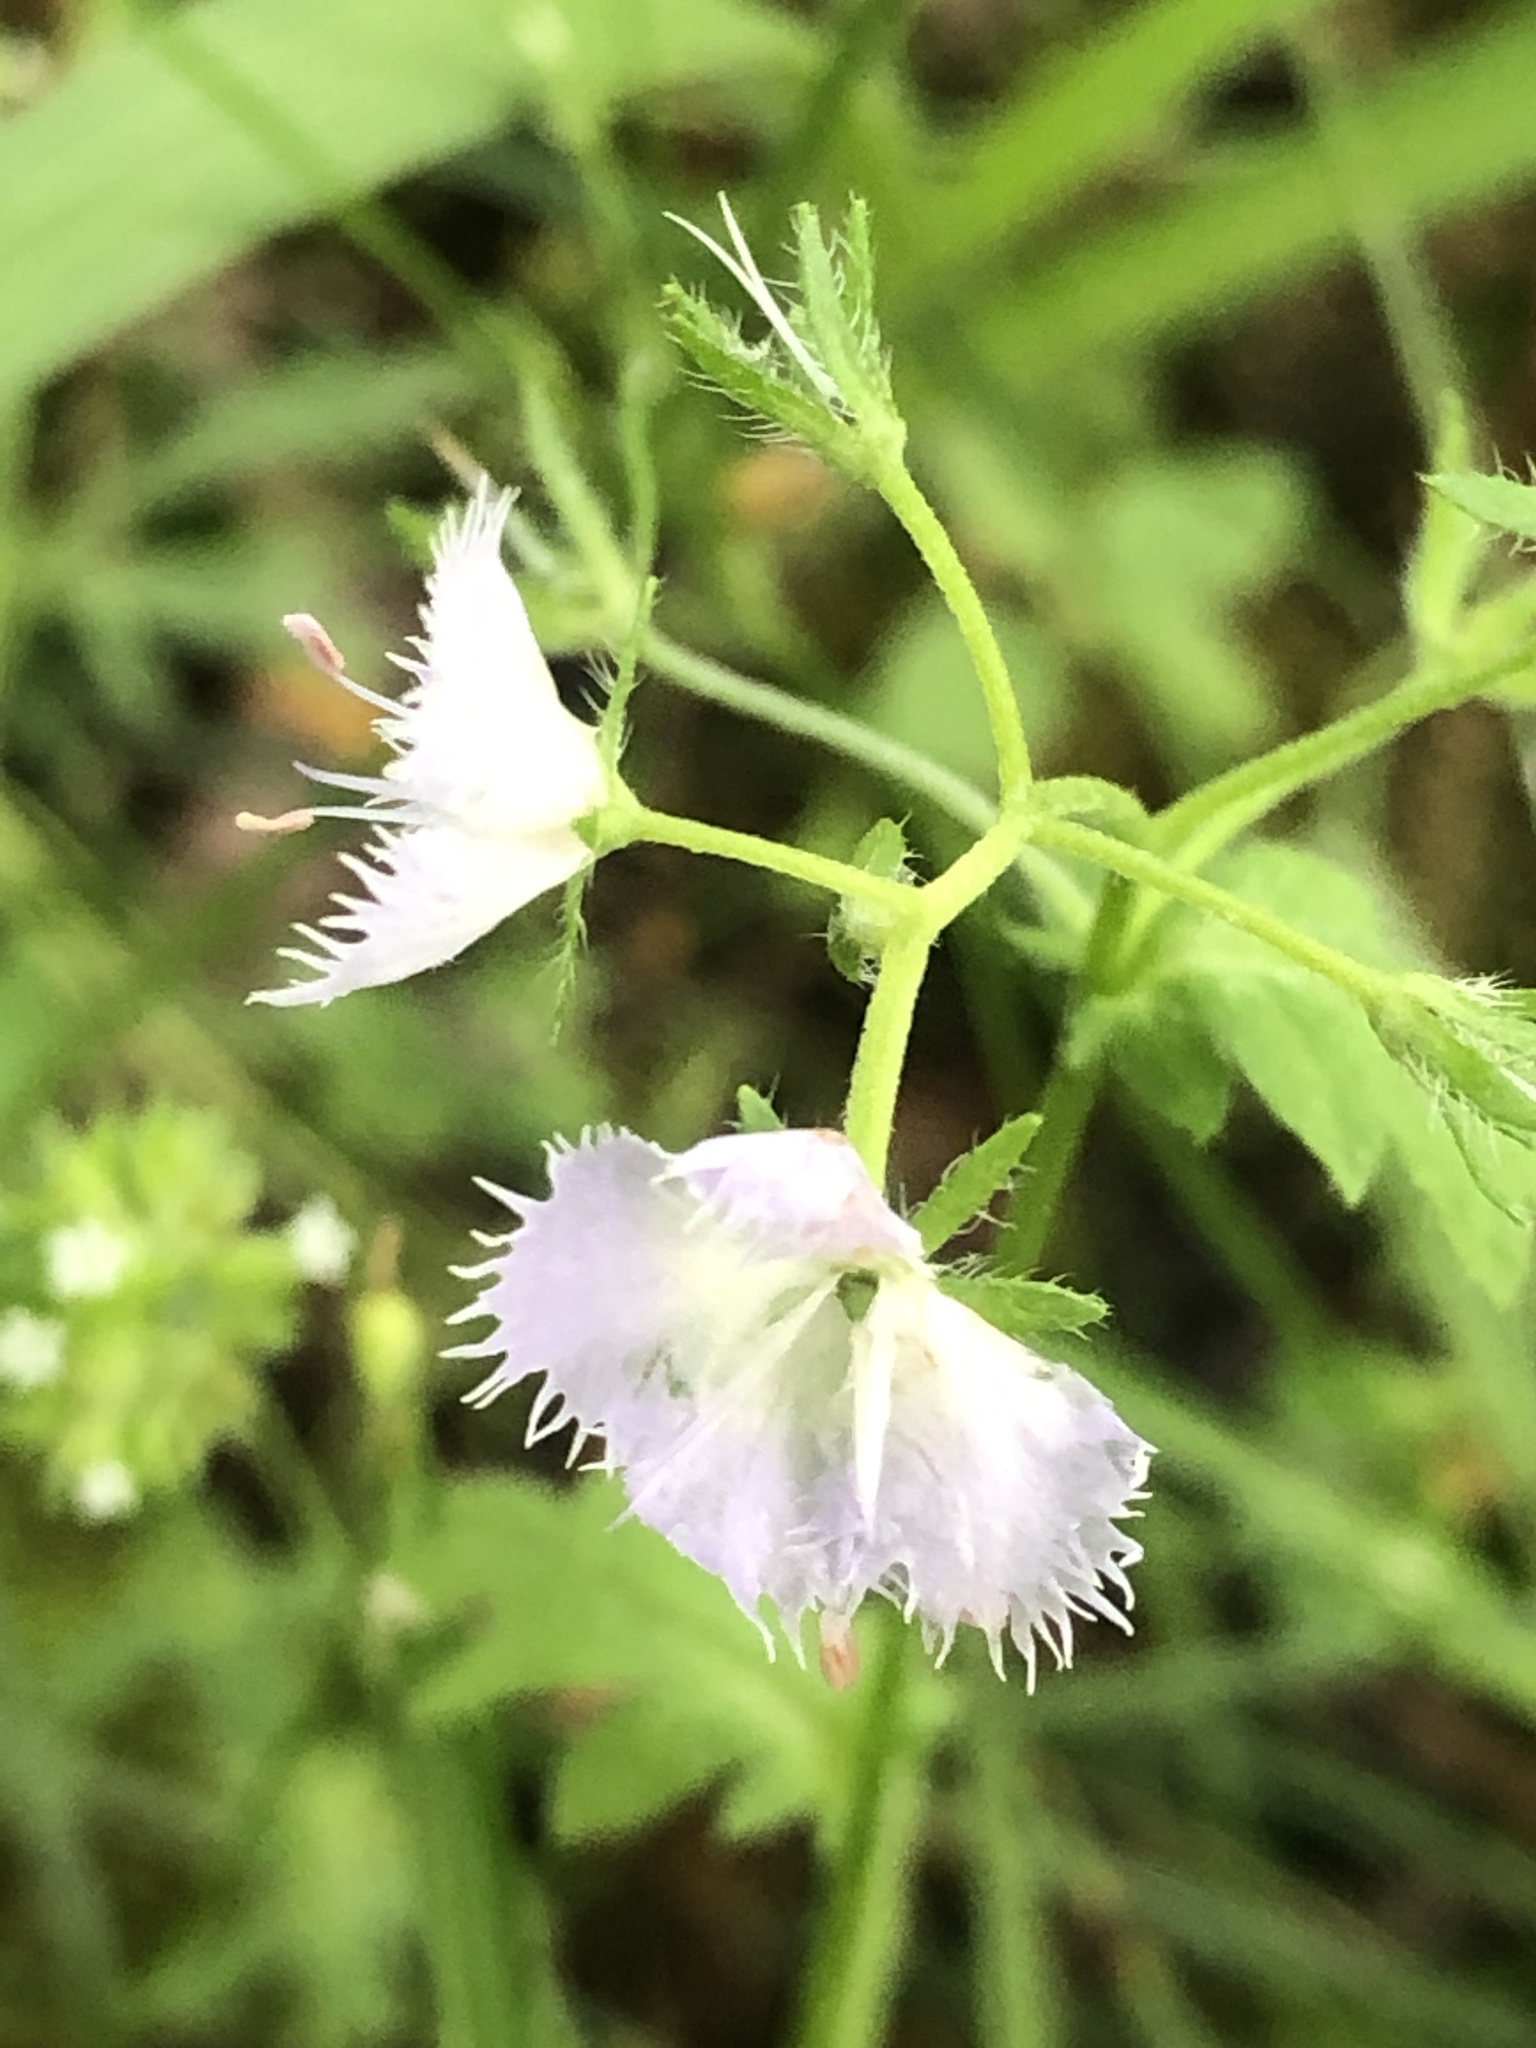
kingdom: Plantae
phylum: Tracheophyta
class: Magnoliopsida
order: Boraginales
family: Hydrophyllaceae
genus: Phacelia
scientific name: Phacelia purshii
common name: Miami-mist
